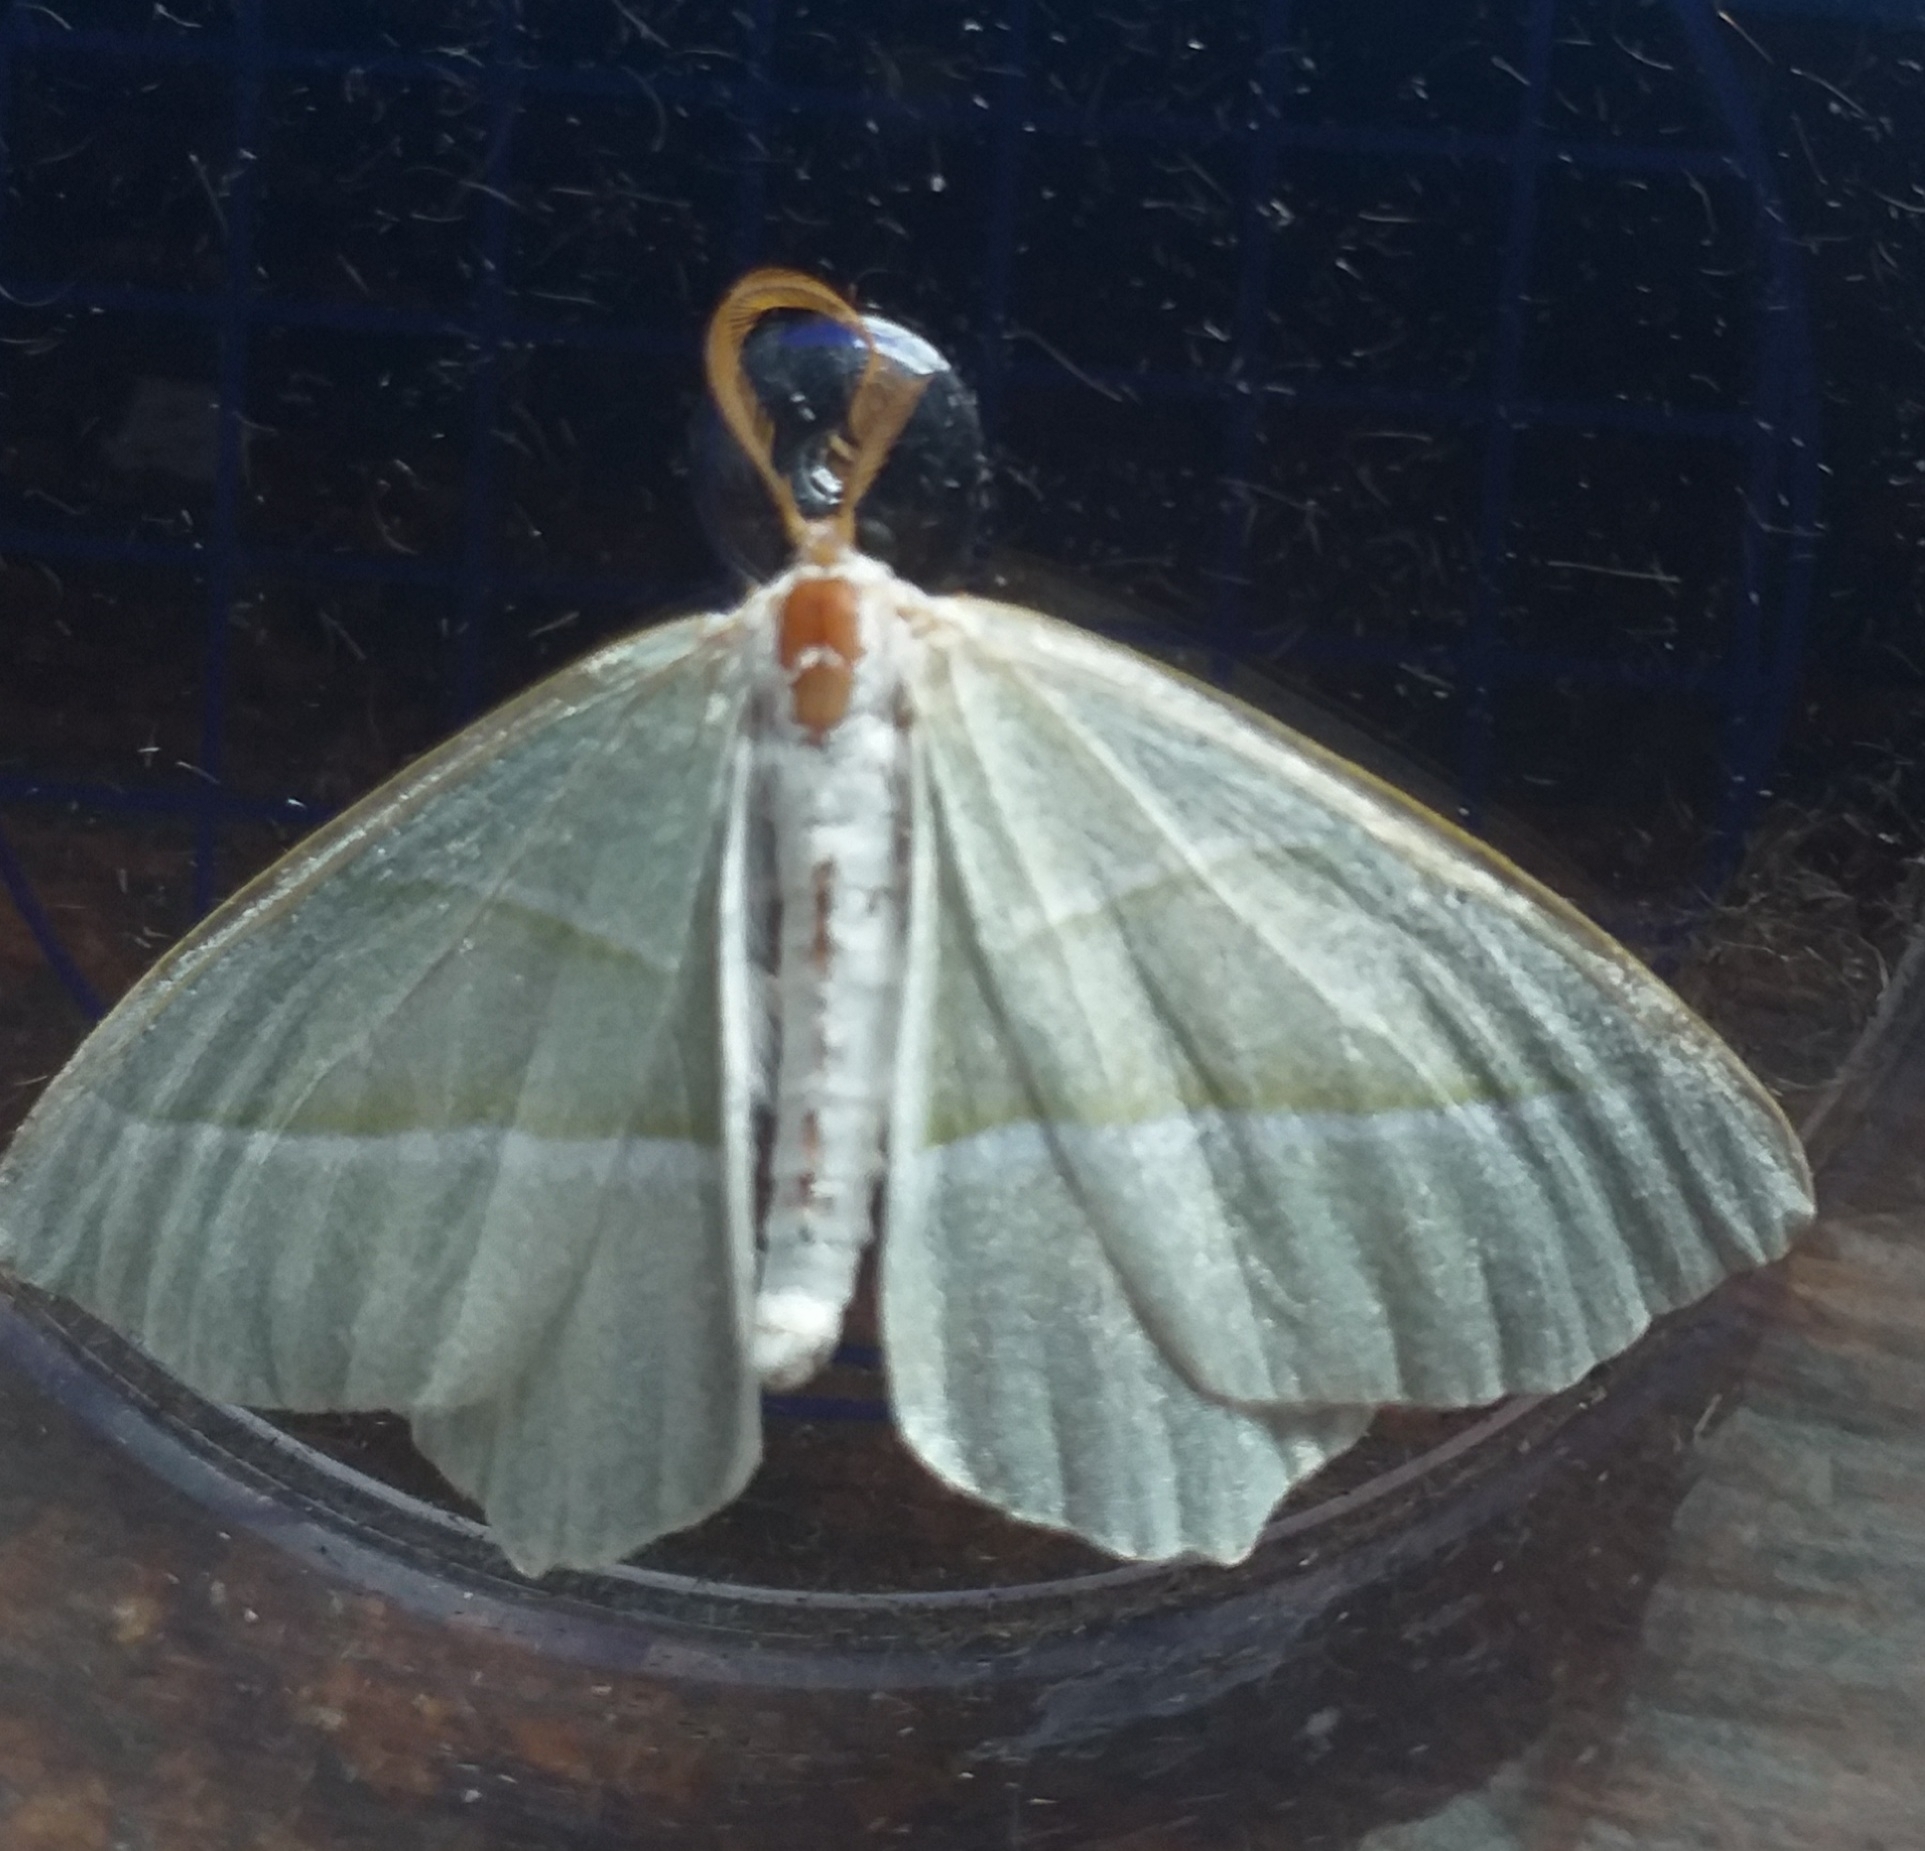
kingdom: Animalia
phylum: Arthropoda
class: Insecta
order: Lepidoptera
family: Geometridae
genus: Campaea
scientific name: Campaea margaritaria
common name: Light emerald
